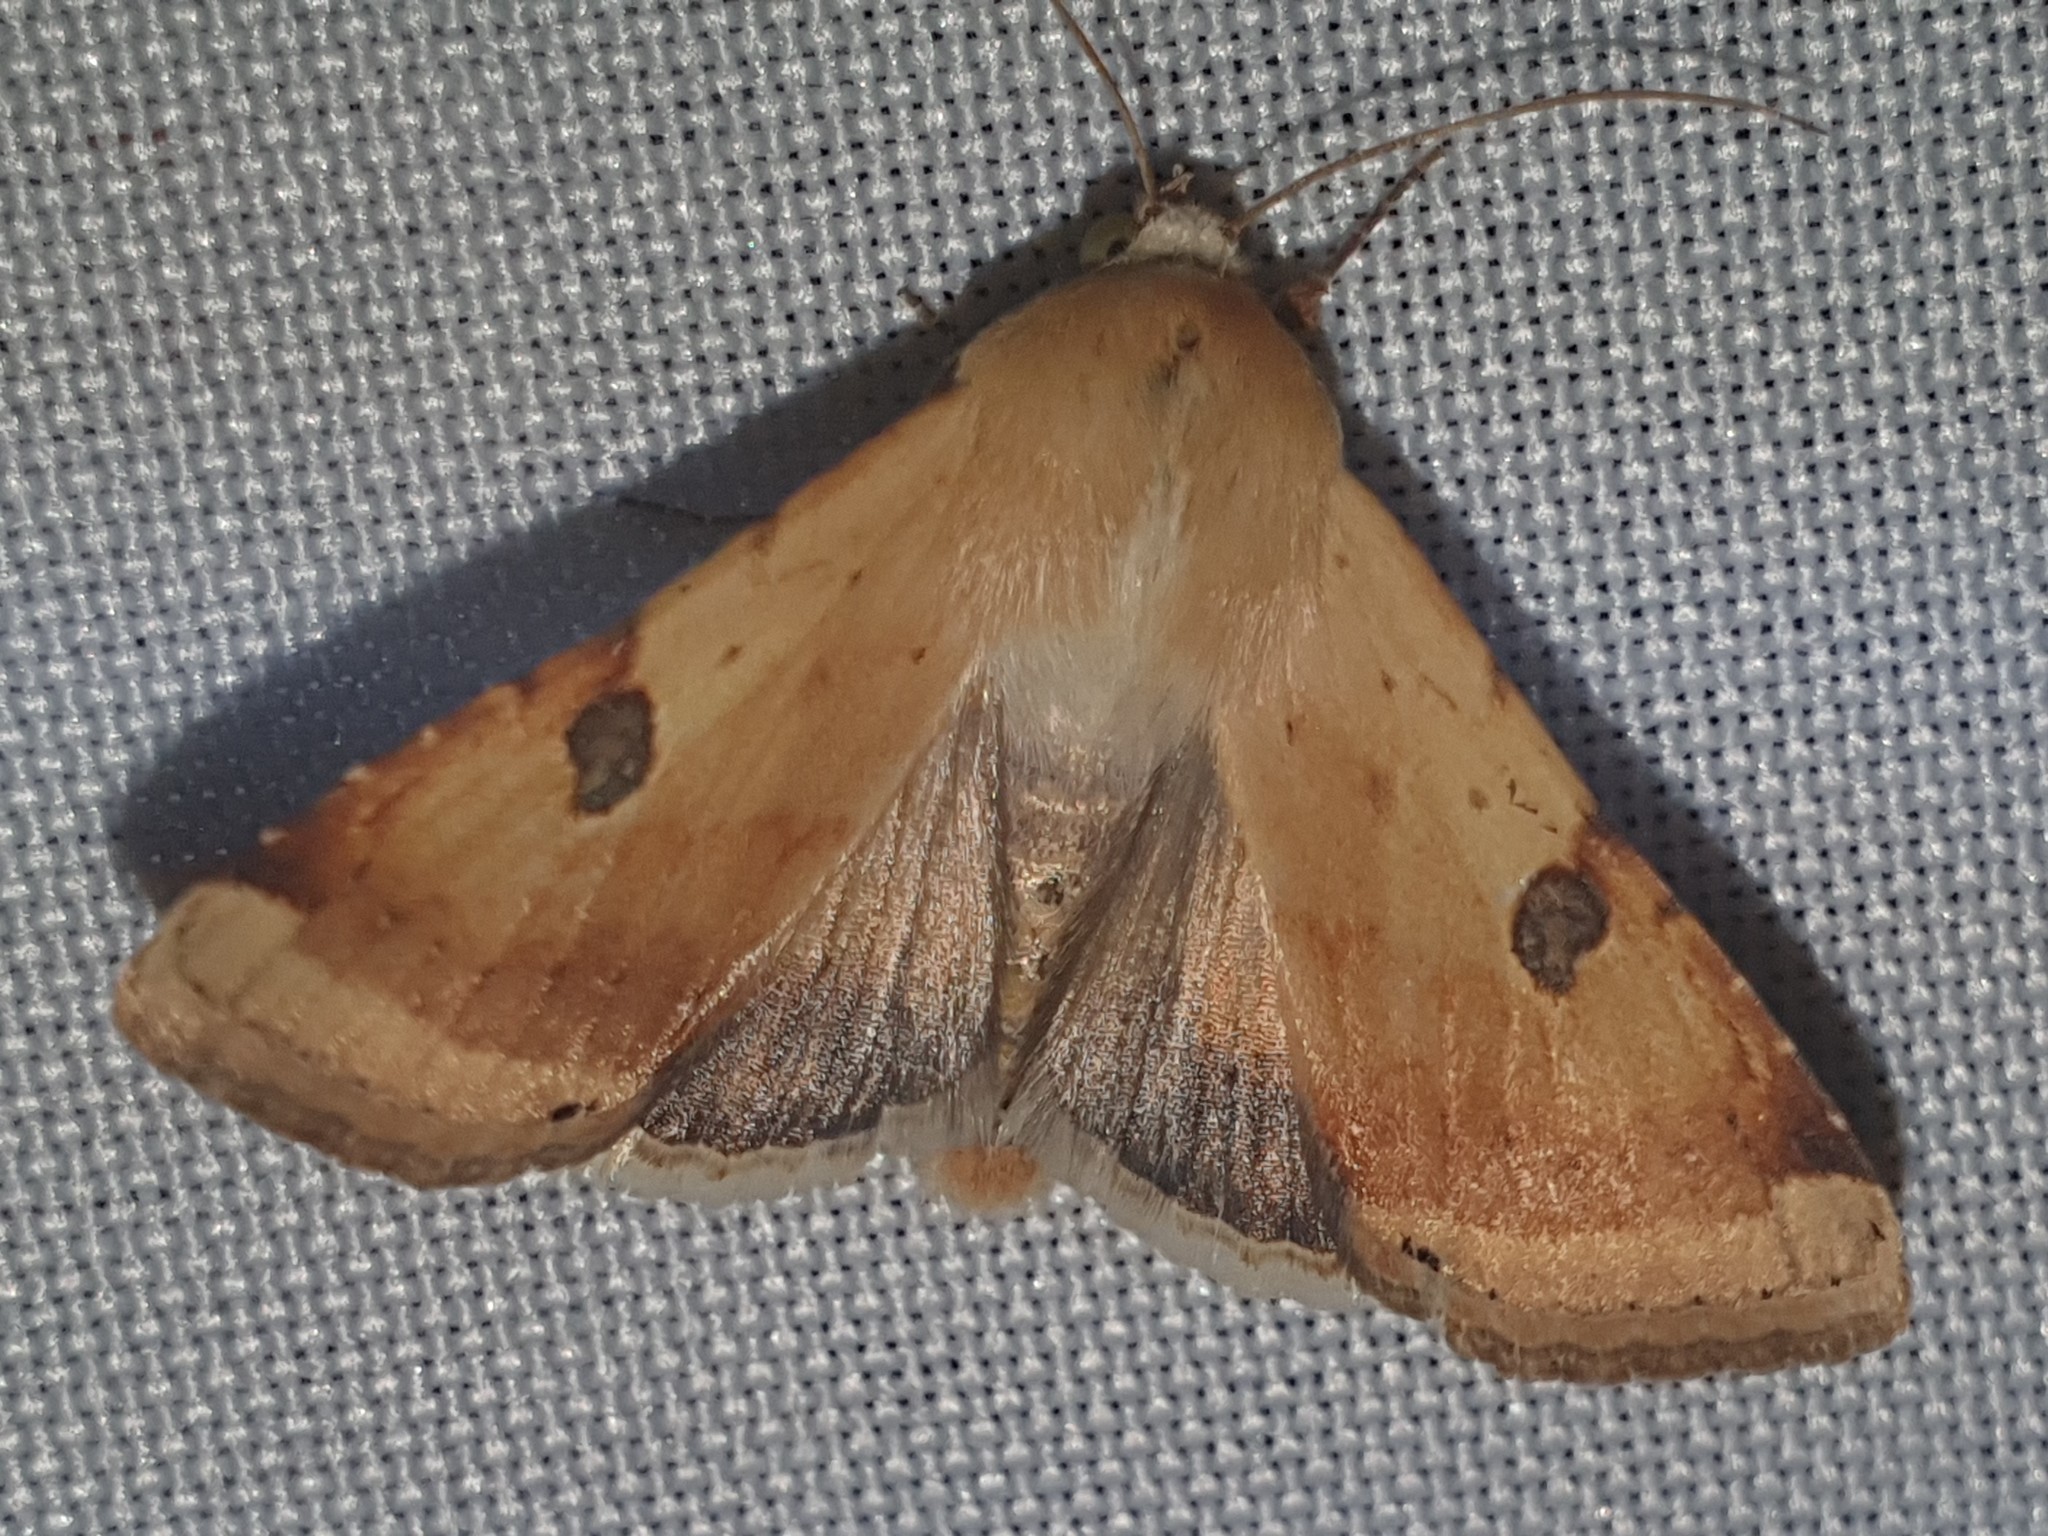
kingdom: Animalia
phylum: Arthropoda
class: Insecta
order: Lepidoptera
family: Noctuidae
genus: Heliothis
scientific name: Heliothis peltigera
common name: Bordered straw
